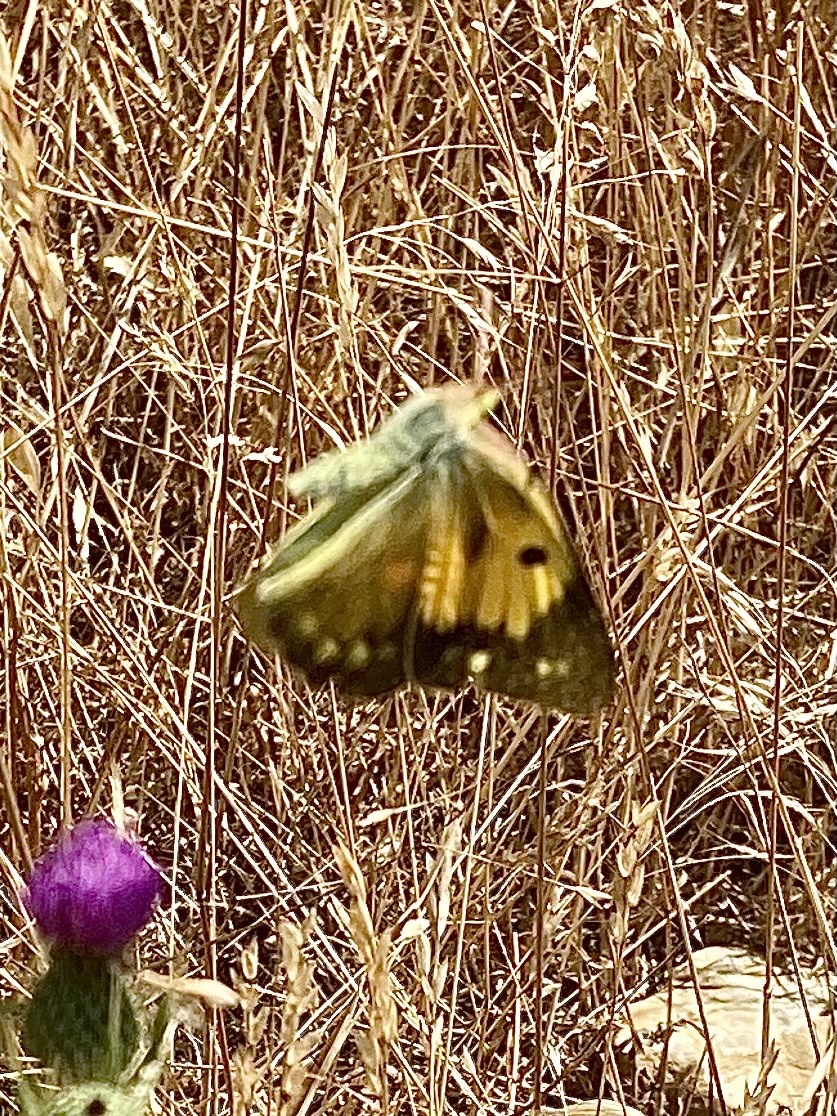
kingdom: Animalia
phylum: Arthropoda
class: Insecta
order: Lepidoptera
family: Pieridae
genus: Colias
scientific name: Colias croceus
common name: Clouded yellow
